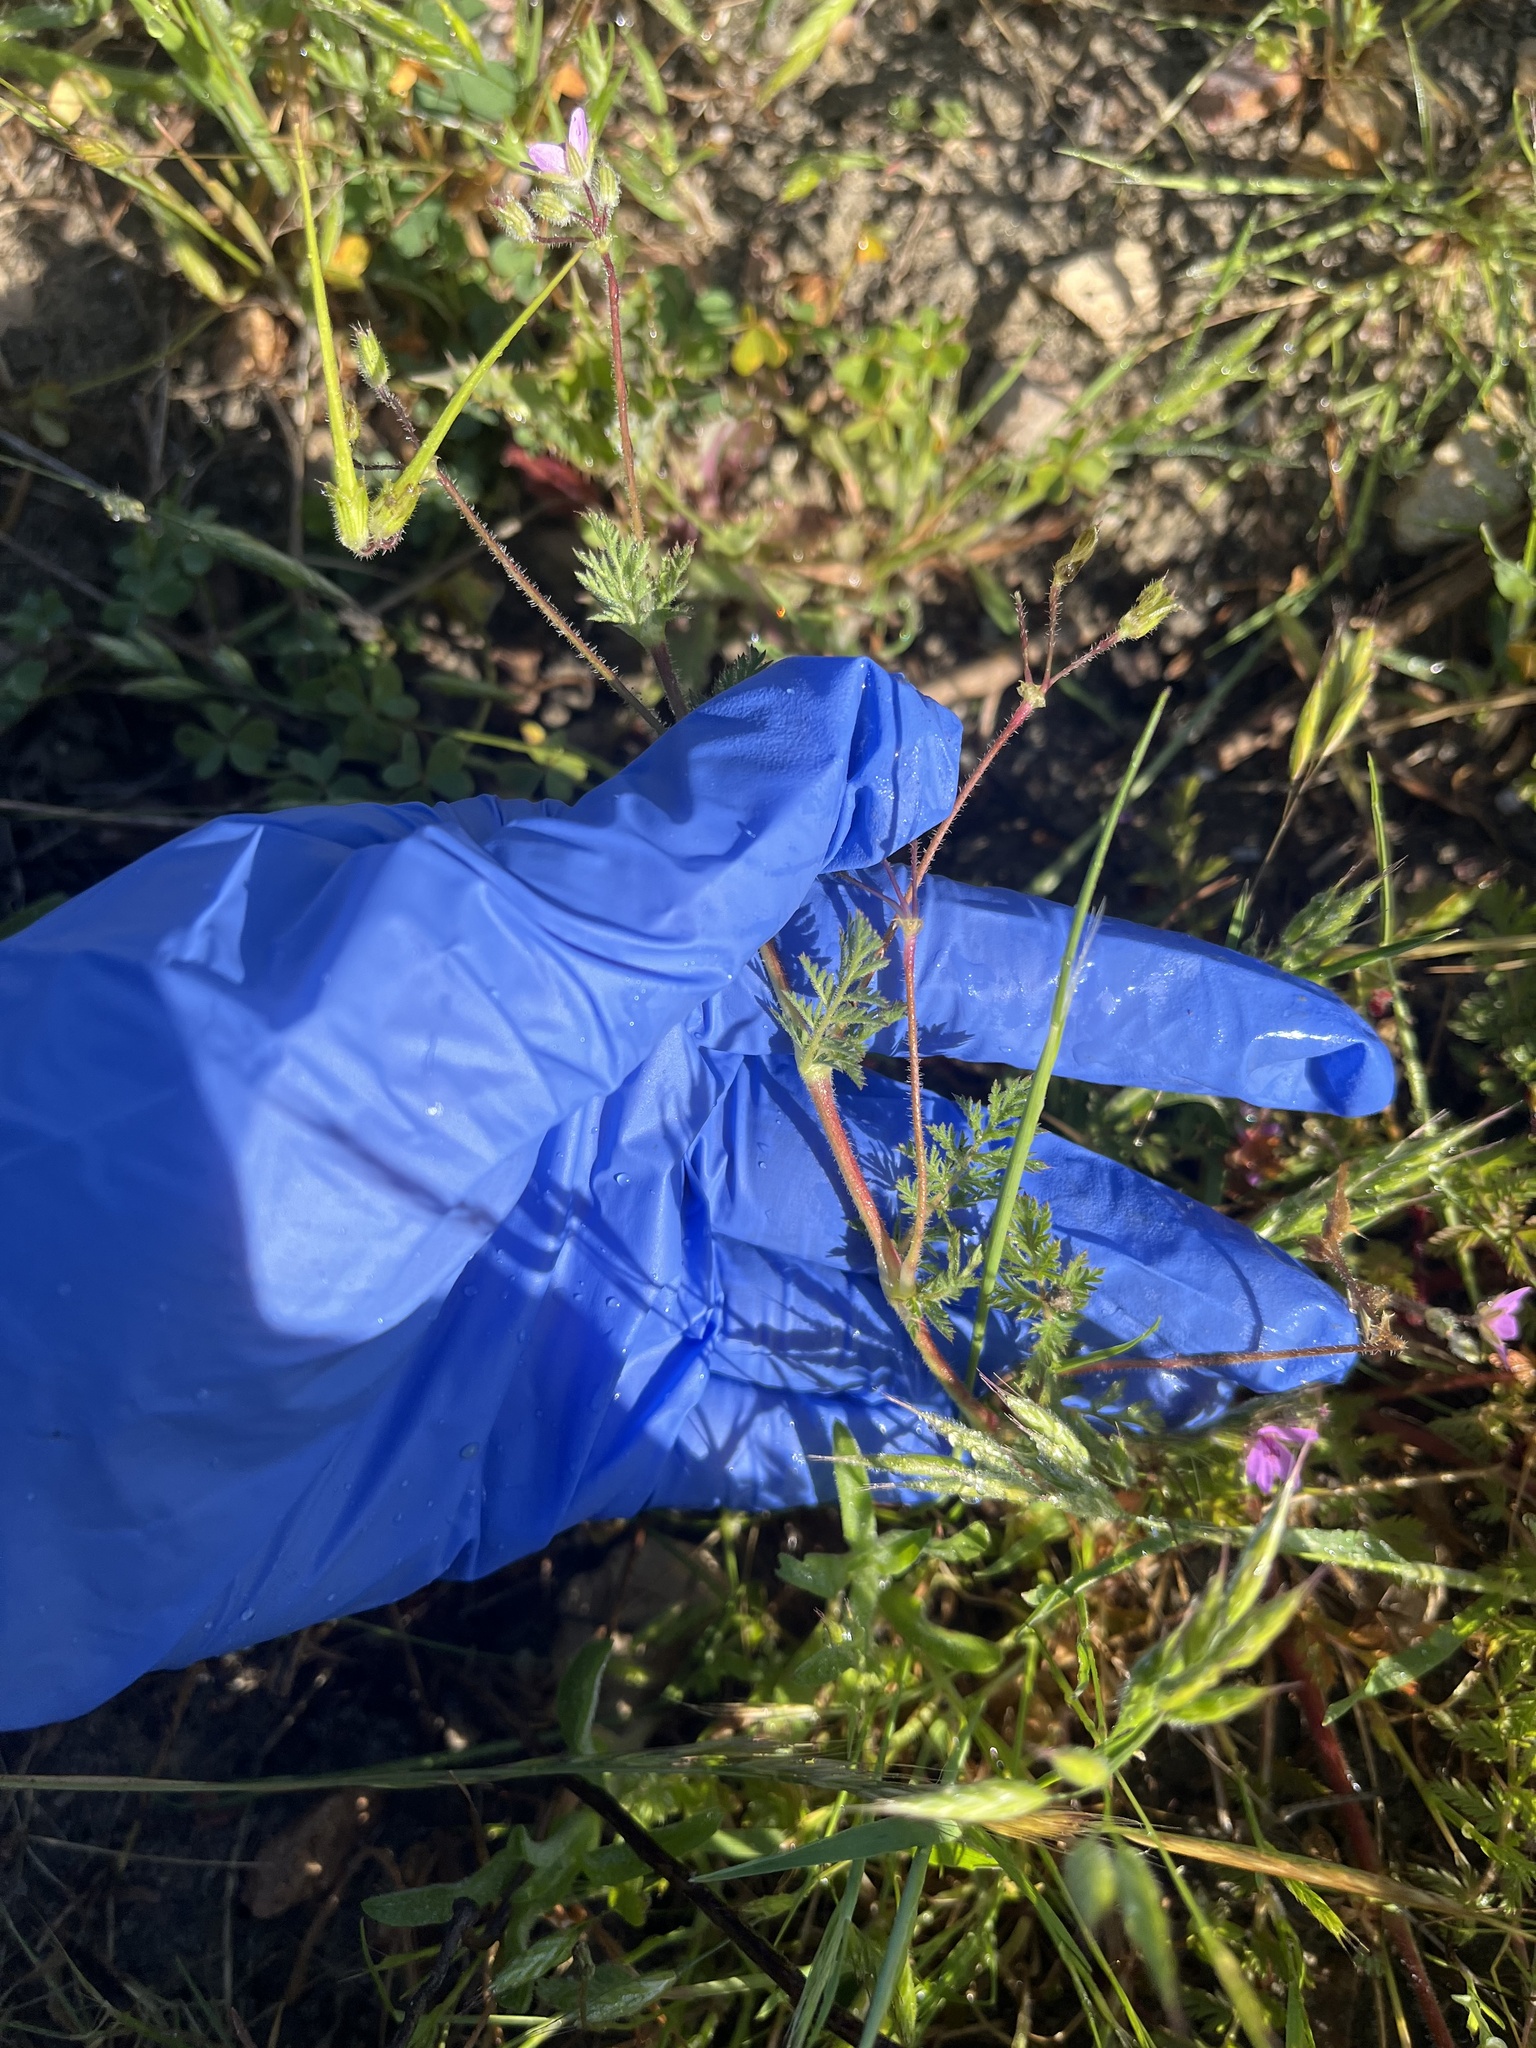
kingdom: Plantae
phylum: Tracheophyta
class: Magnoliopsida
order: Geraniales
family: Geraniaceae
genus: Erodium
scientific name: Erodium cicutarium
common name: Common stork's-bill
